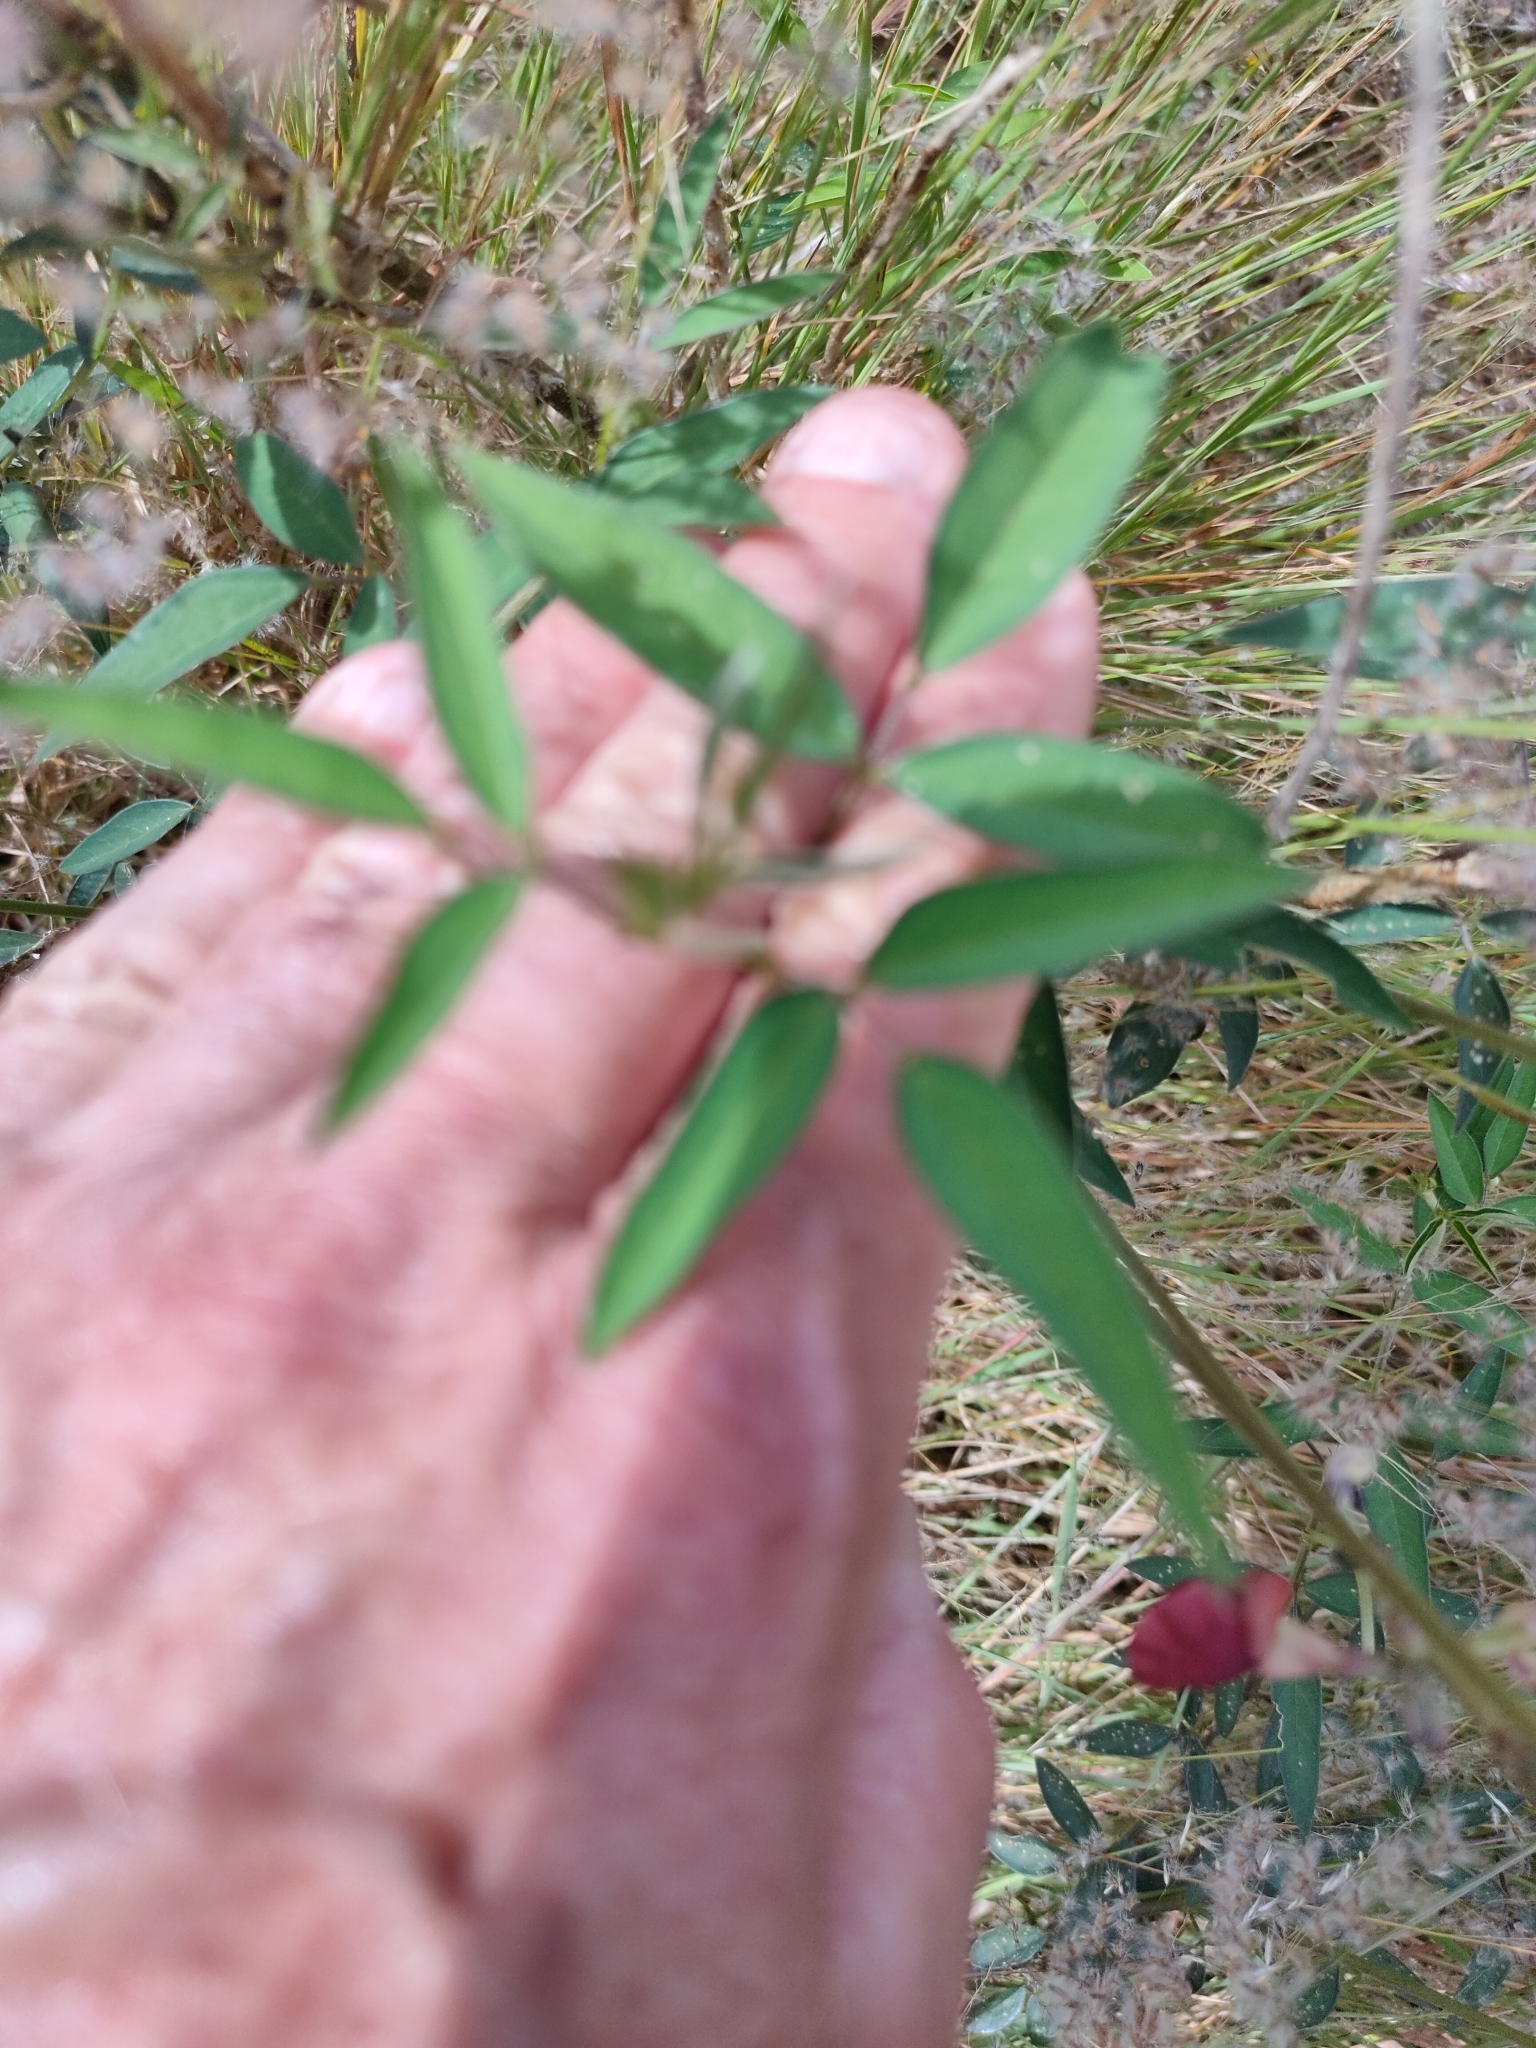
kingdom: Plantae
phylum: Tracheophyta
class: Magnoliopsida
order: Fabales
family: Fabaceae
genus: Macroptilium
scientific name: Macroptilium lathyroides
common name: Wild bushbean
